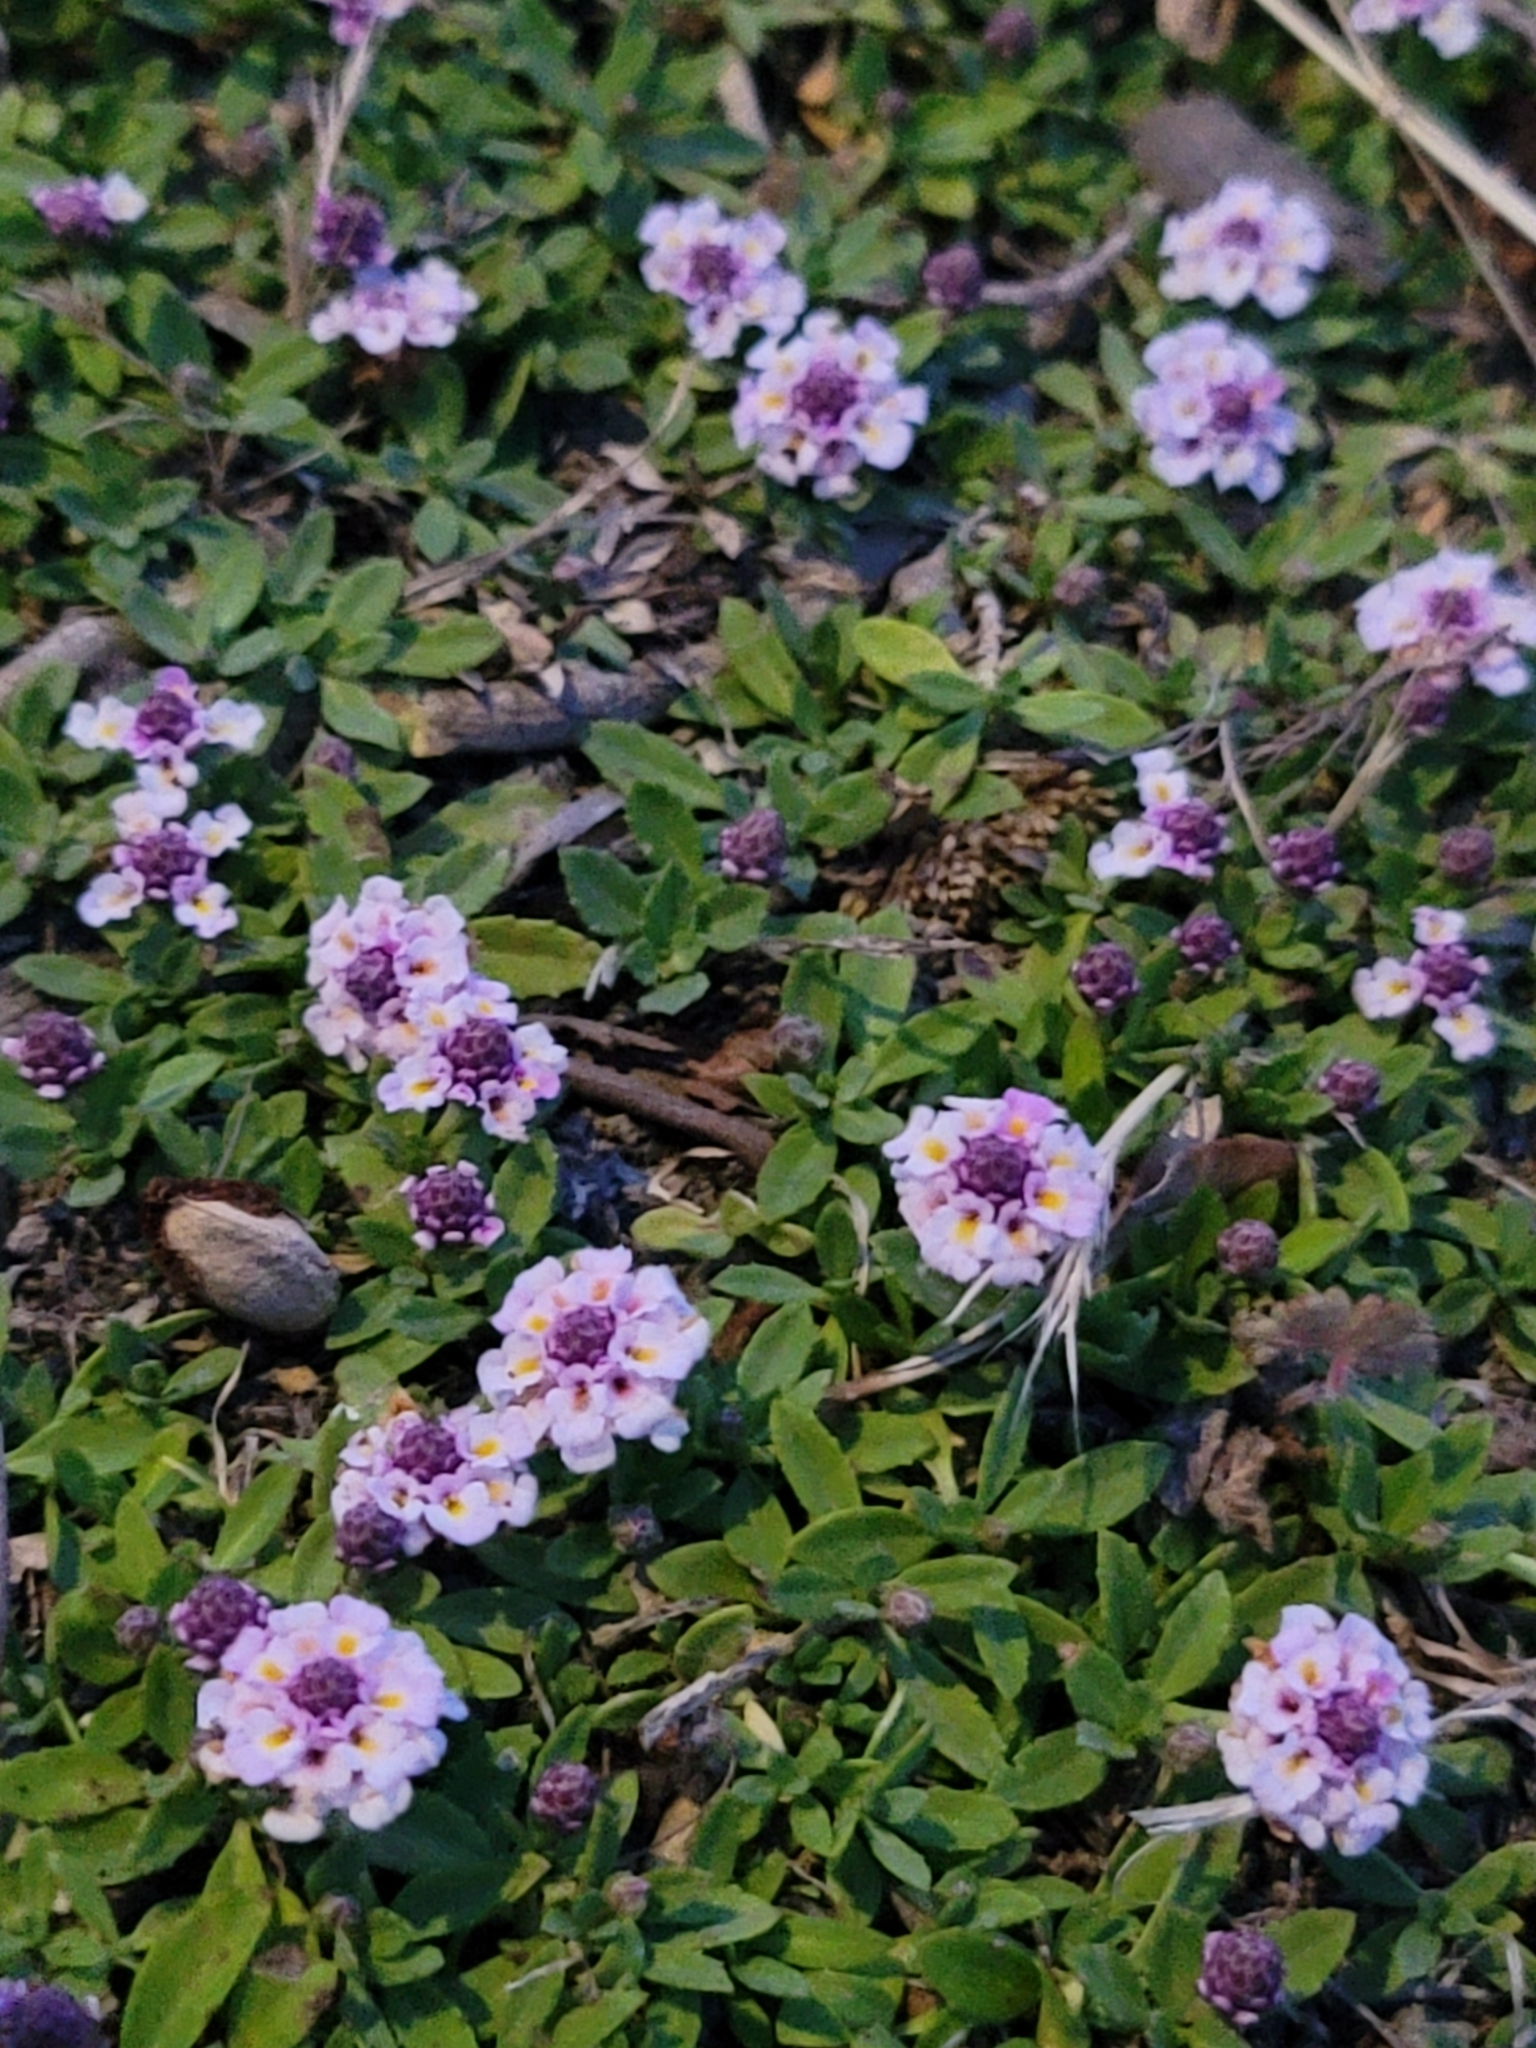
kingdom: Plantae
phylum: Tracheophyta
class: Magnoliopsida
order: Lamiales
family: Verbenaceae
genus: Phyla
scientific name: Phyla nodiflora
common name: Frogfruit
